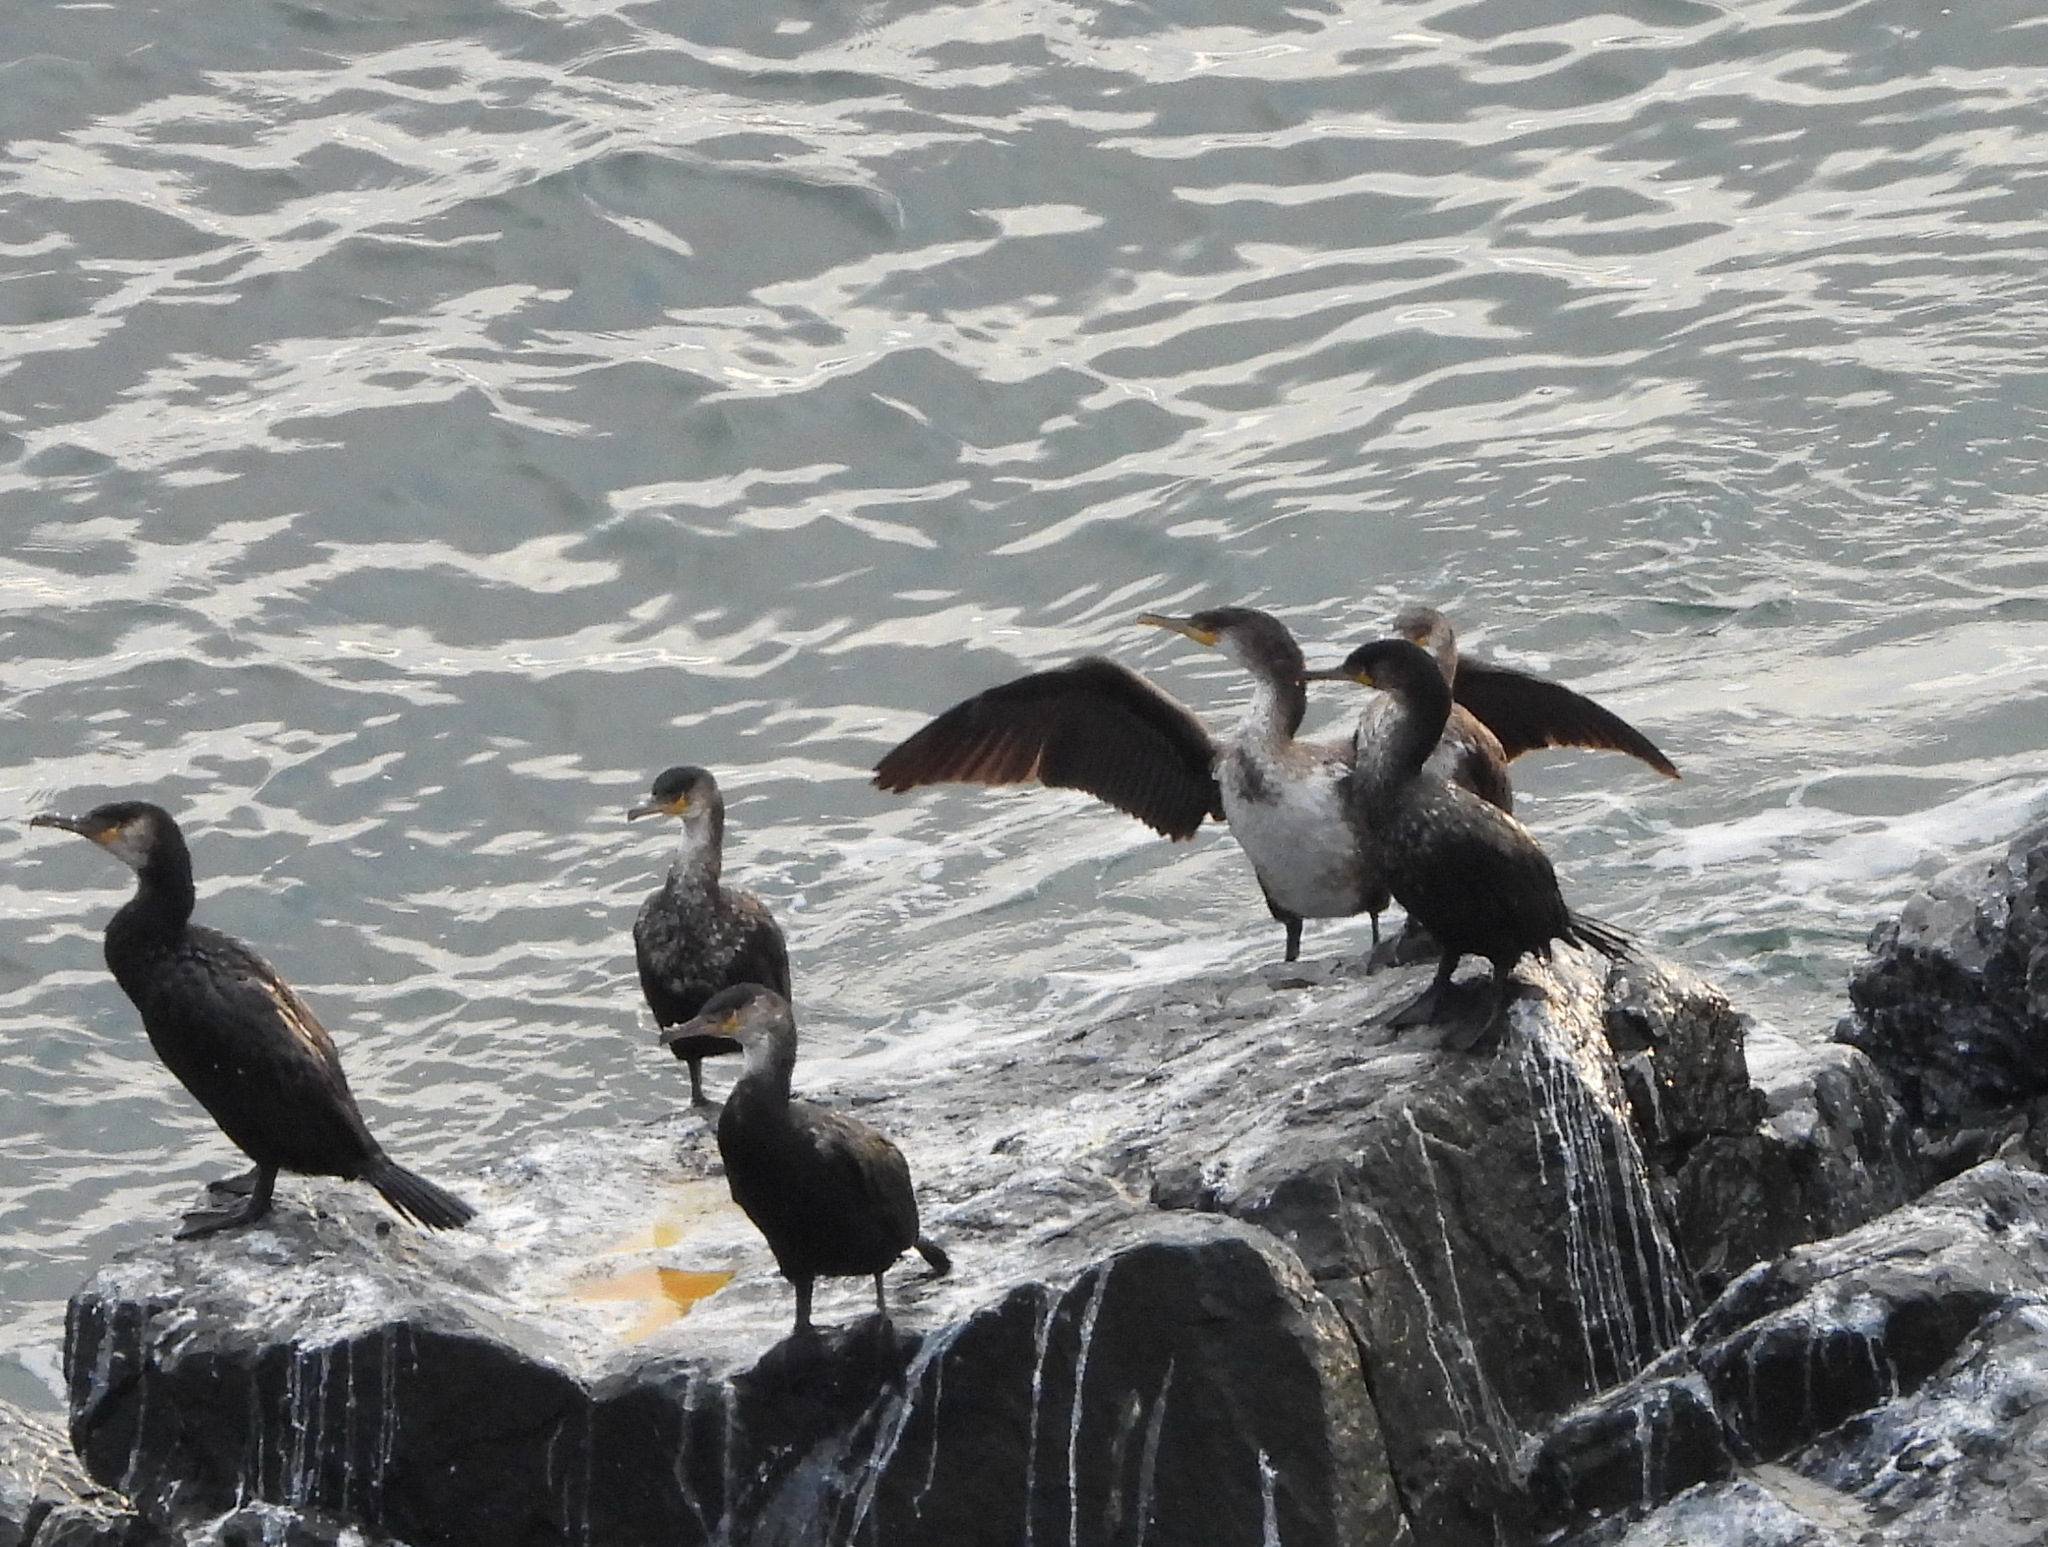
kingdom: Animalia
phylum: Chordata
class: Aves
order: Suliformes
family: Phalacrocoracidae
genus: Phalacrocorax
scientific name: Phalacrocorax capillatus
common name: Japanese cormorant
